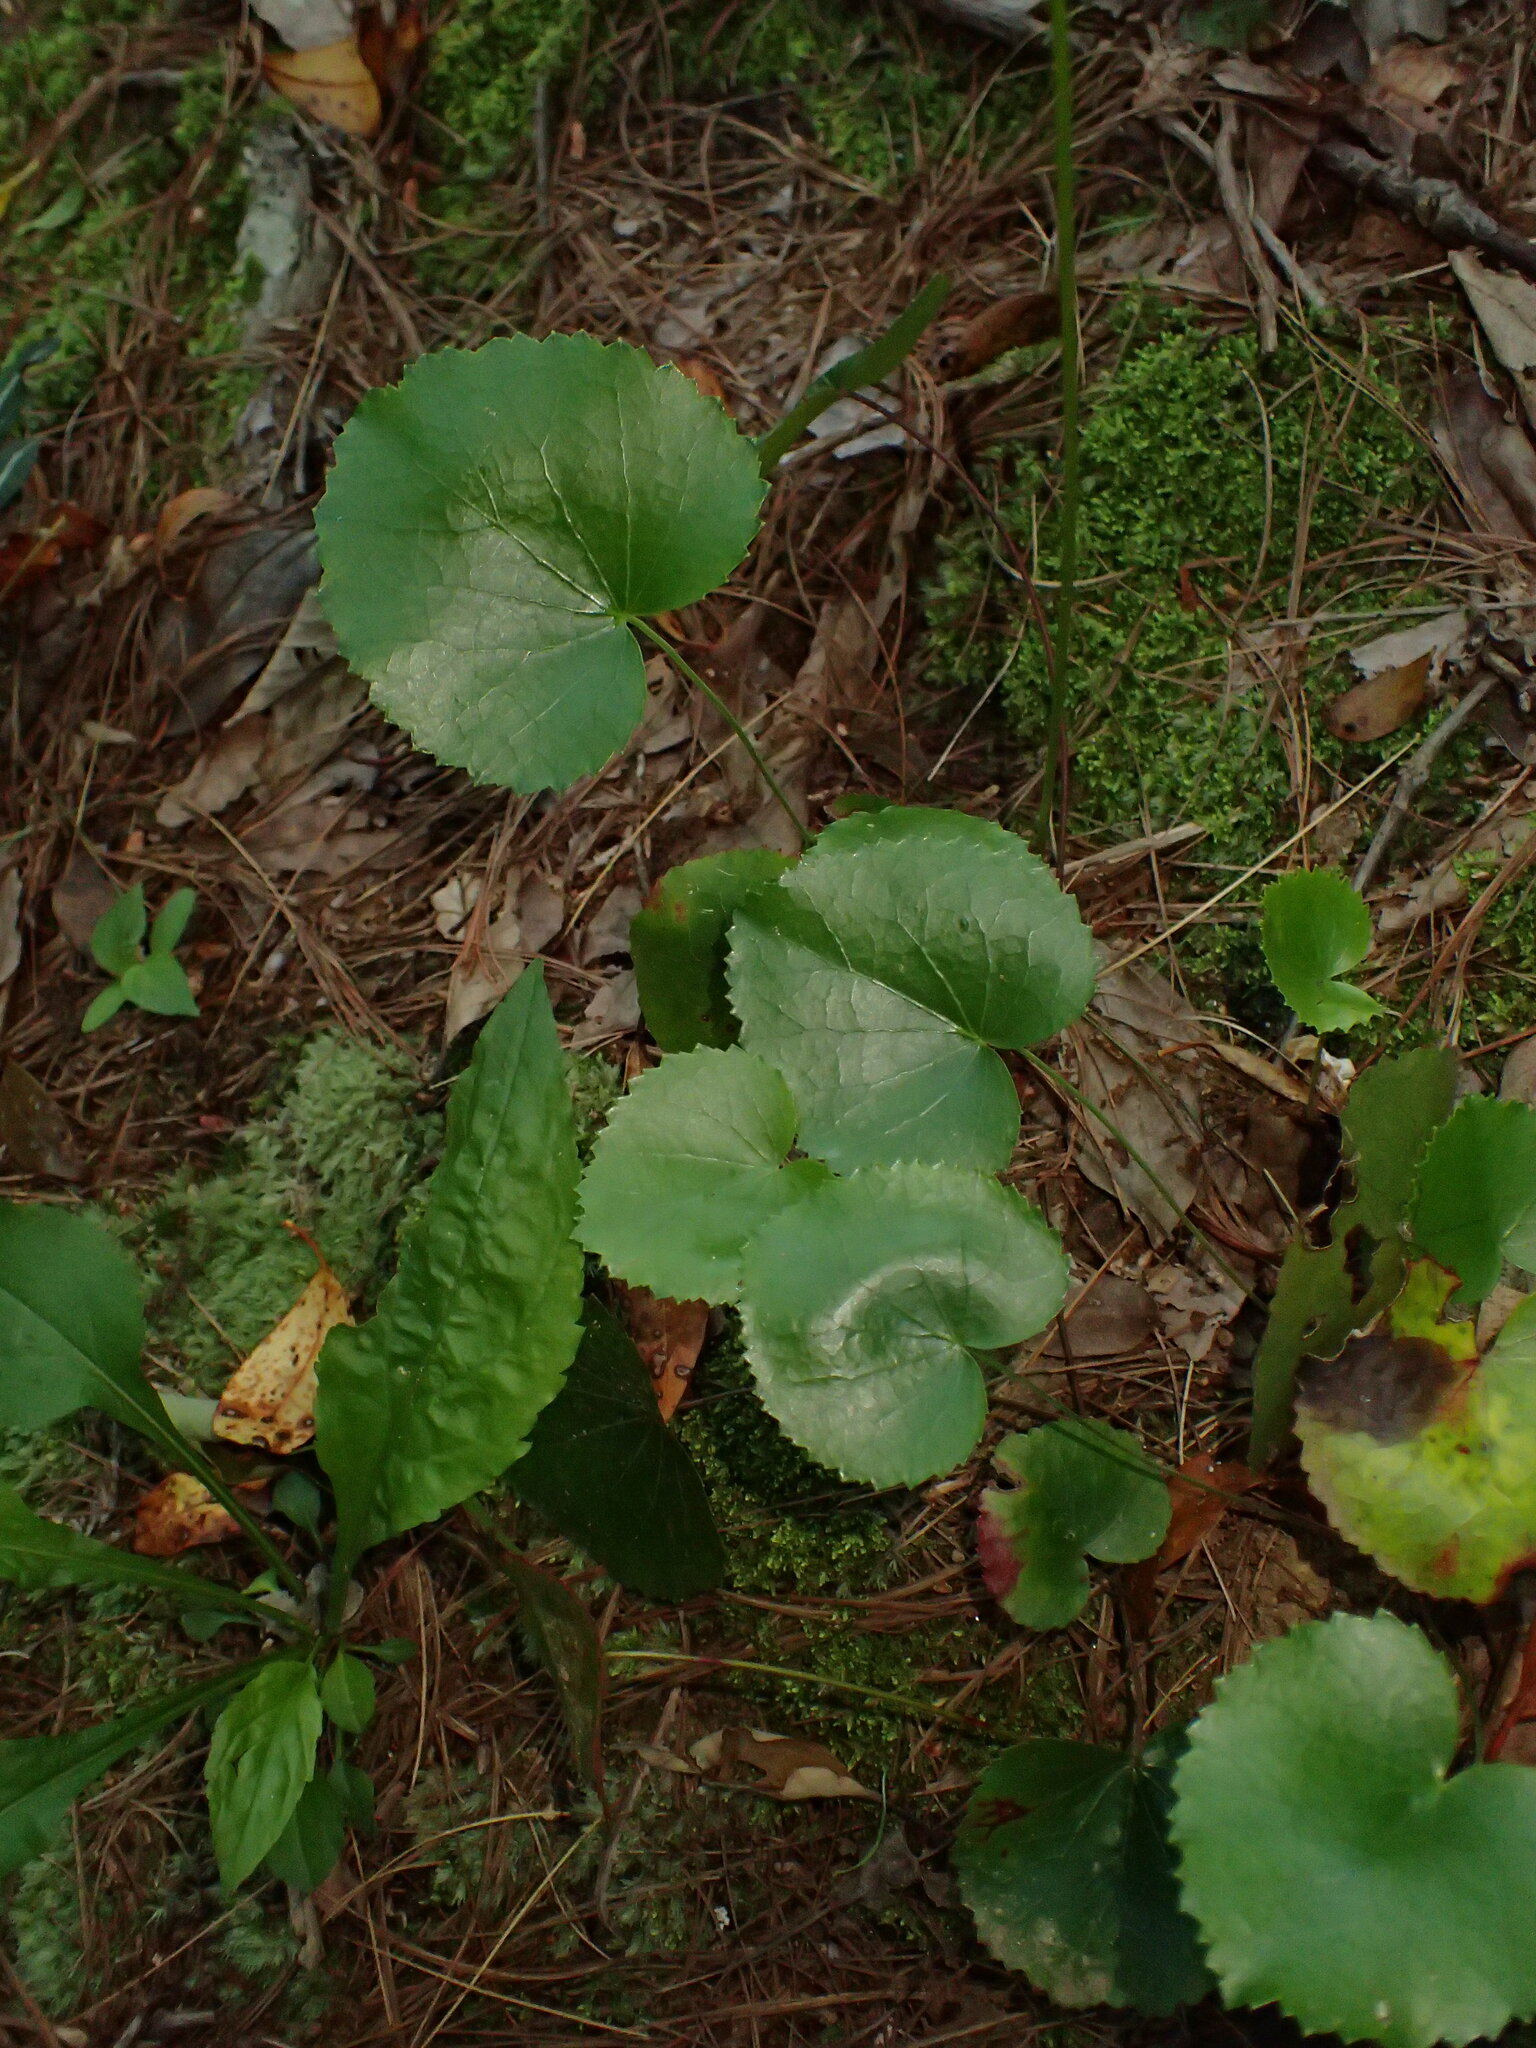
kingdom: Plantae
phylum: Tracheophyta
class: Magnoliopsida
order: Ericales
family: Diapensiaceae
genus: Galax
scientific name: Galax urceolata
